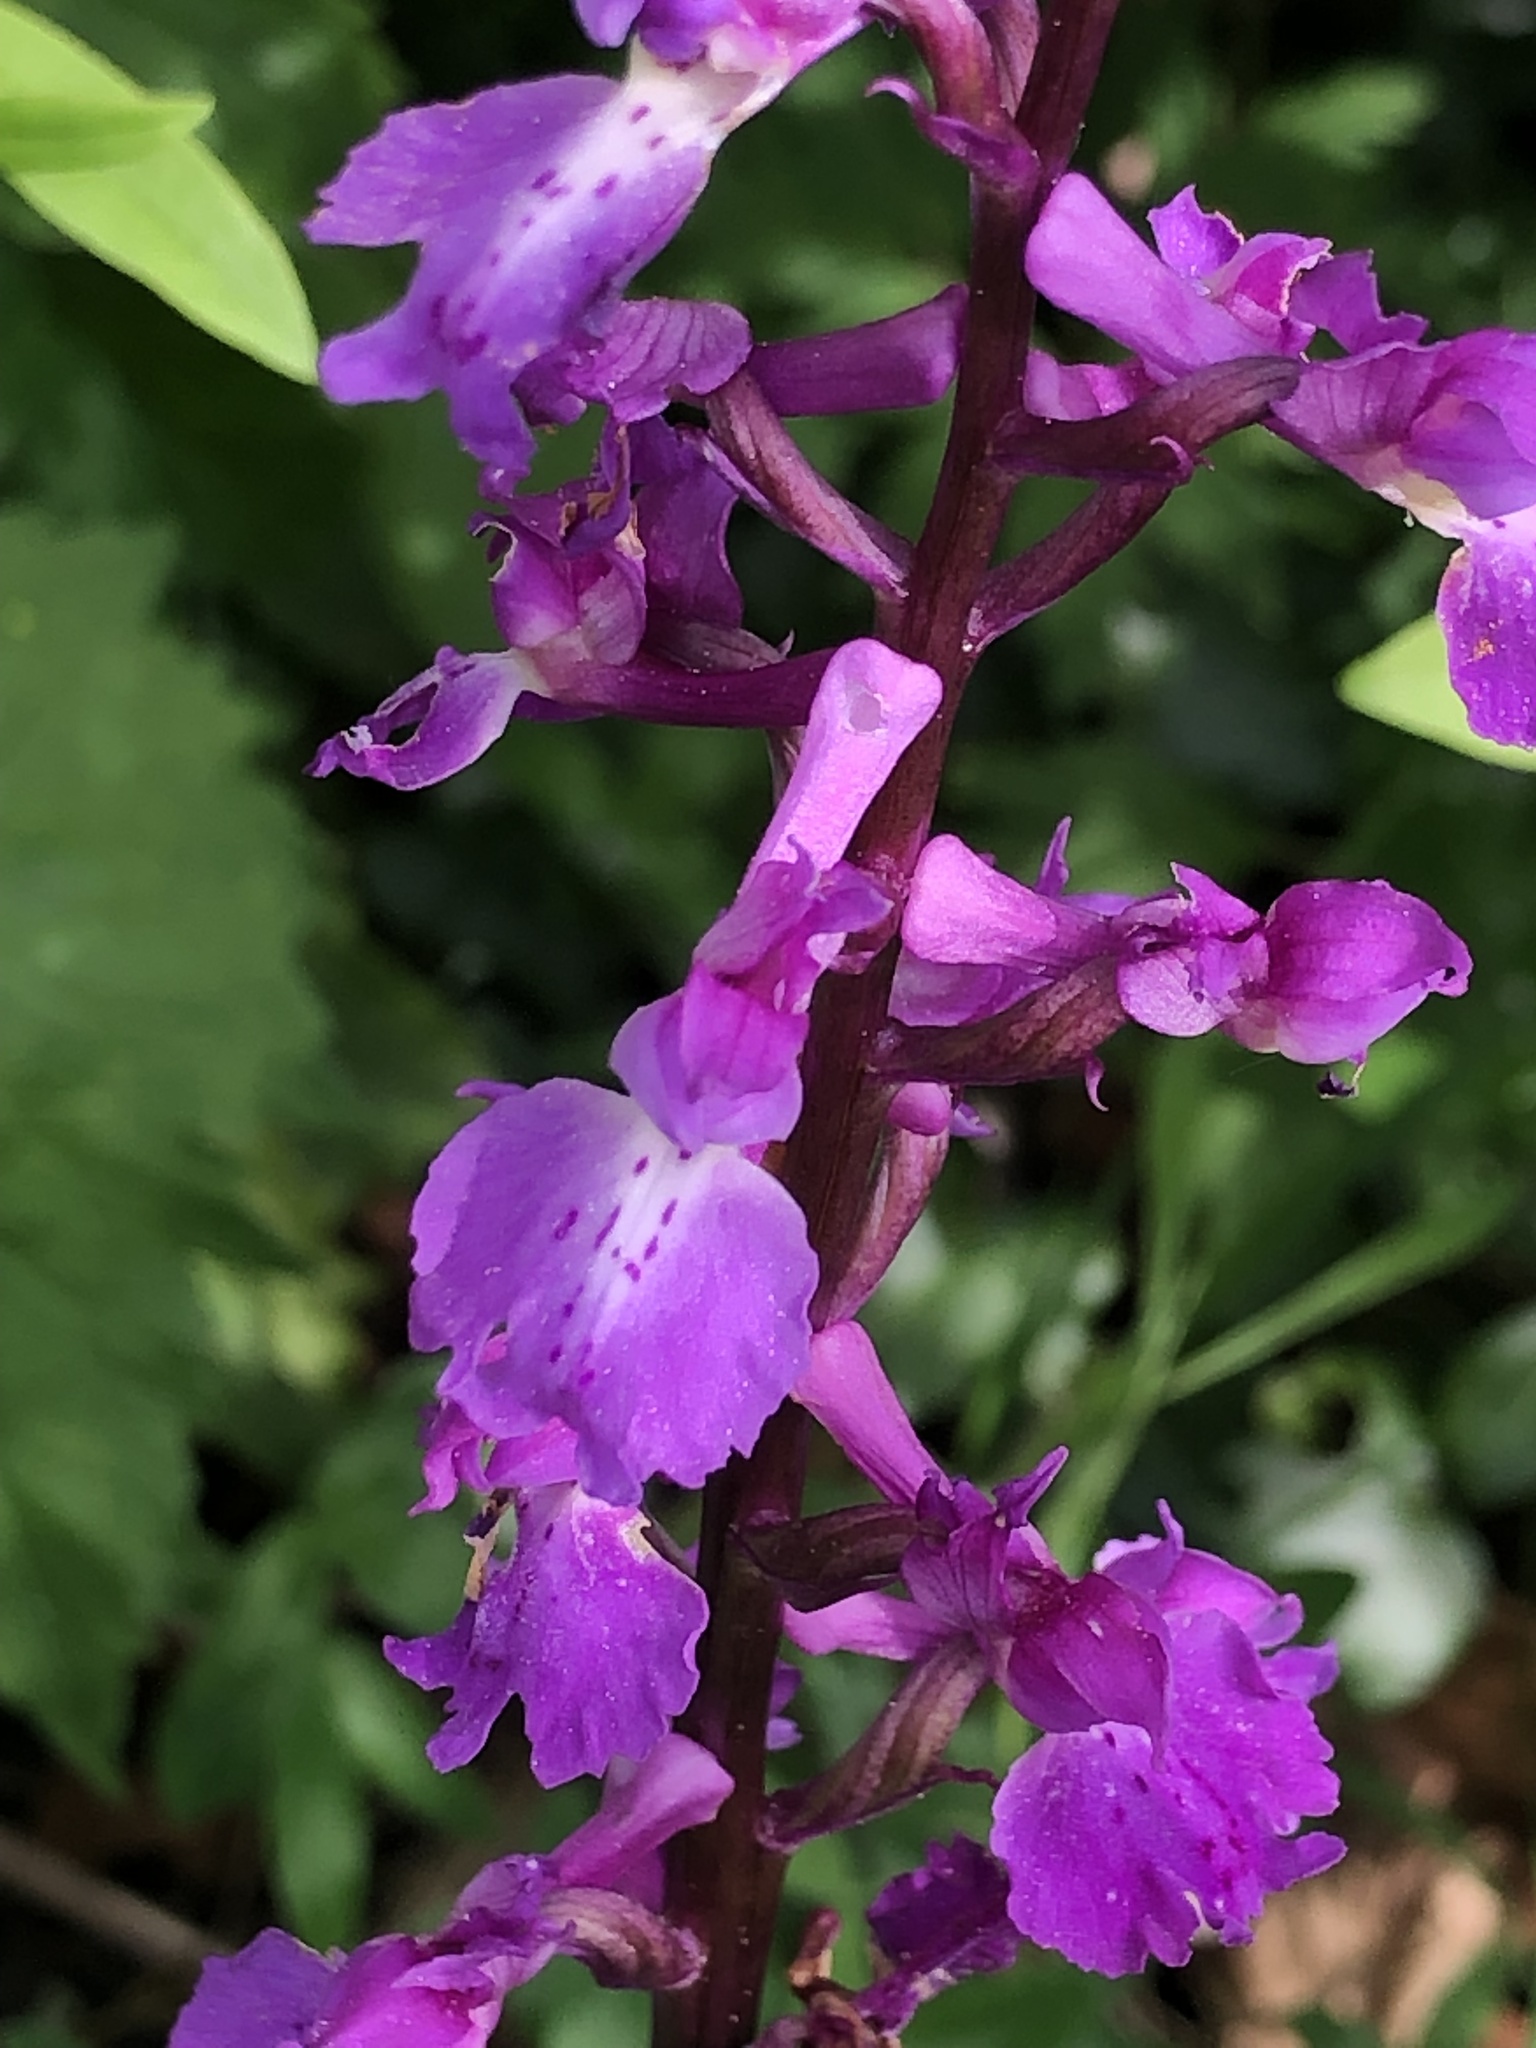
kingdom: Plantae
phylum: Tracheophyta
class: Liliopsida
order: Asparagales
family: Orchidaceae
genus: Orchis
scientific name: Orchis mascula
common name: Early-purple orchid
